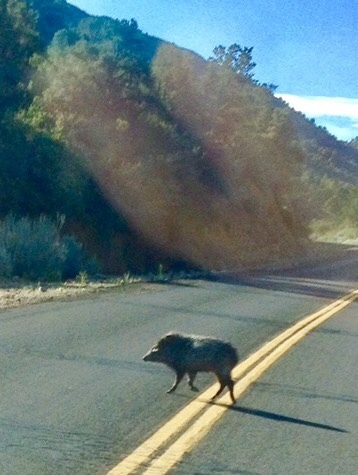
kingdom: Animalia
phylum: Chordata
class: Mammalia
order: Artiodactyla
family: Tayassuidae
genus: Pecari
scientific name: Pecari tajacu
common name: Collared peccary
